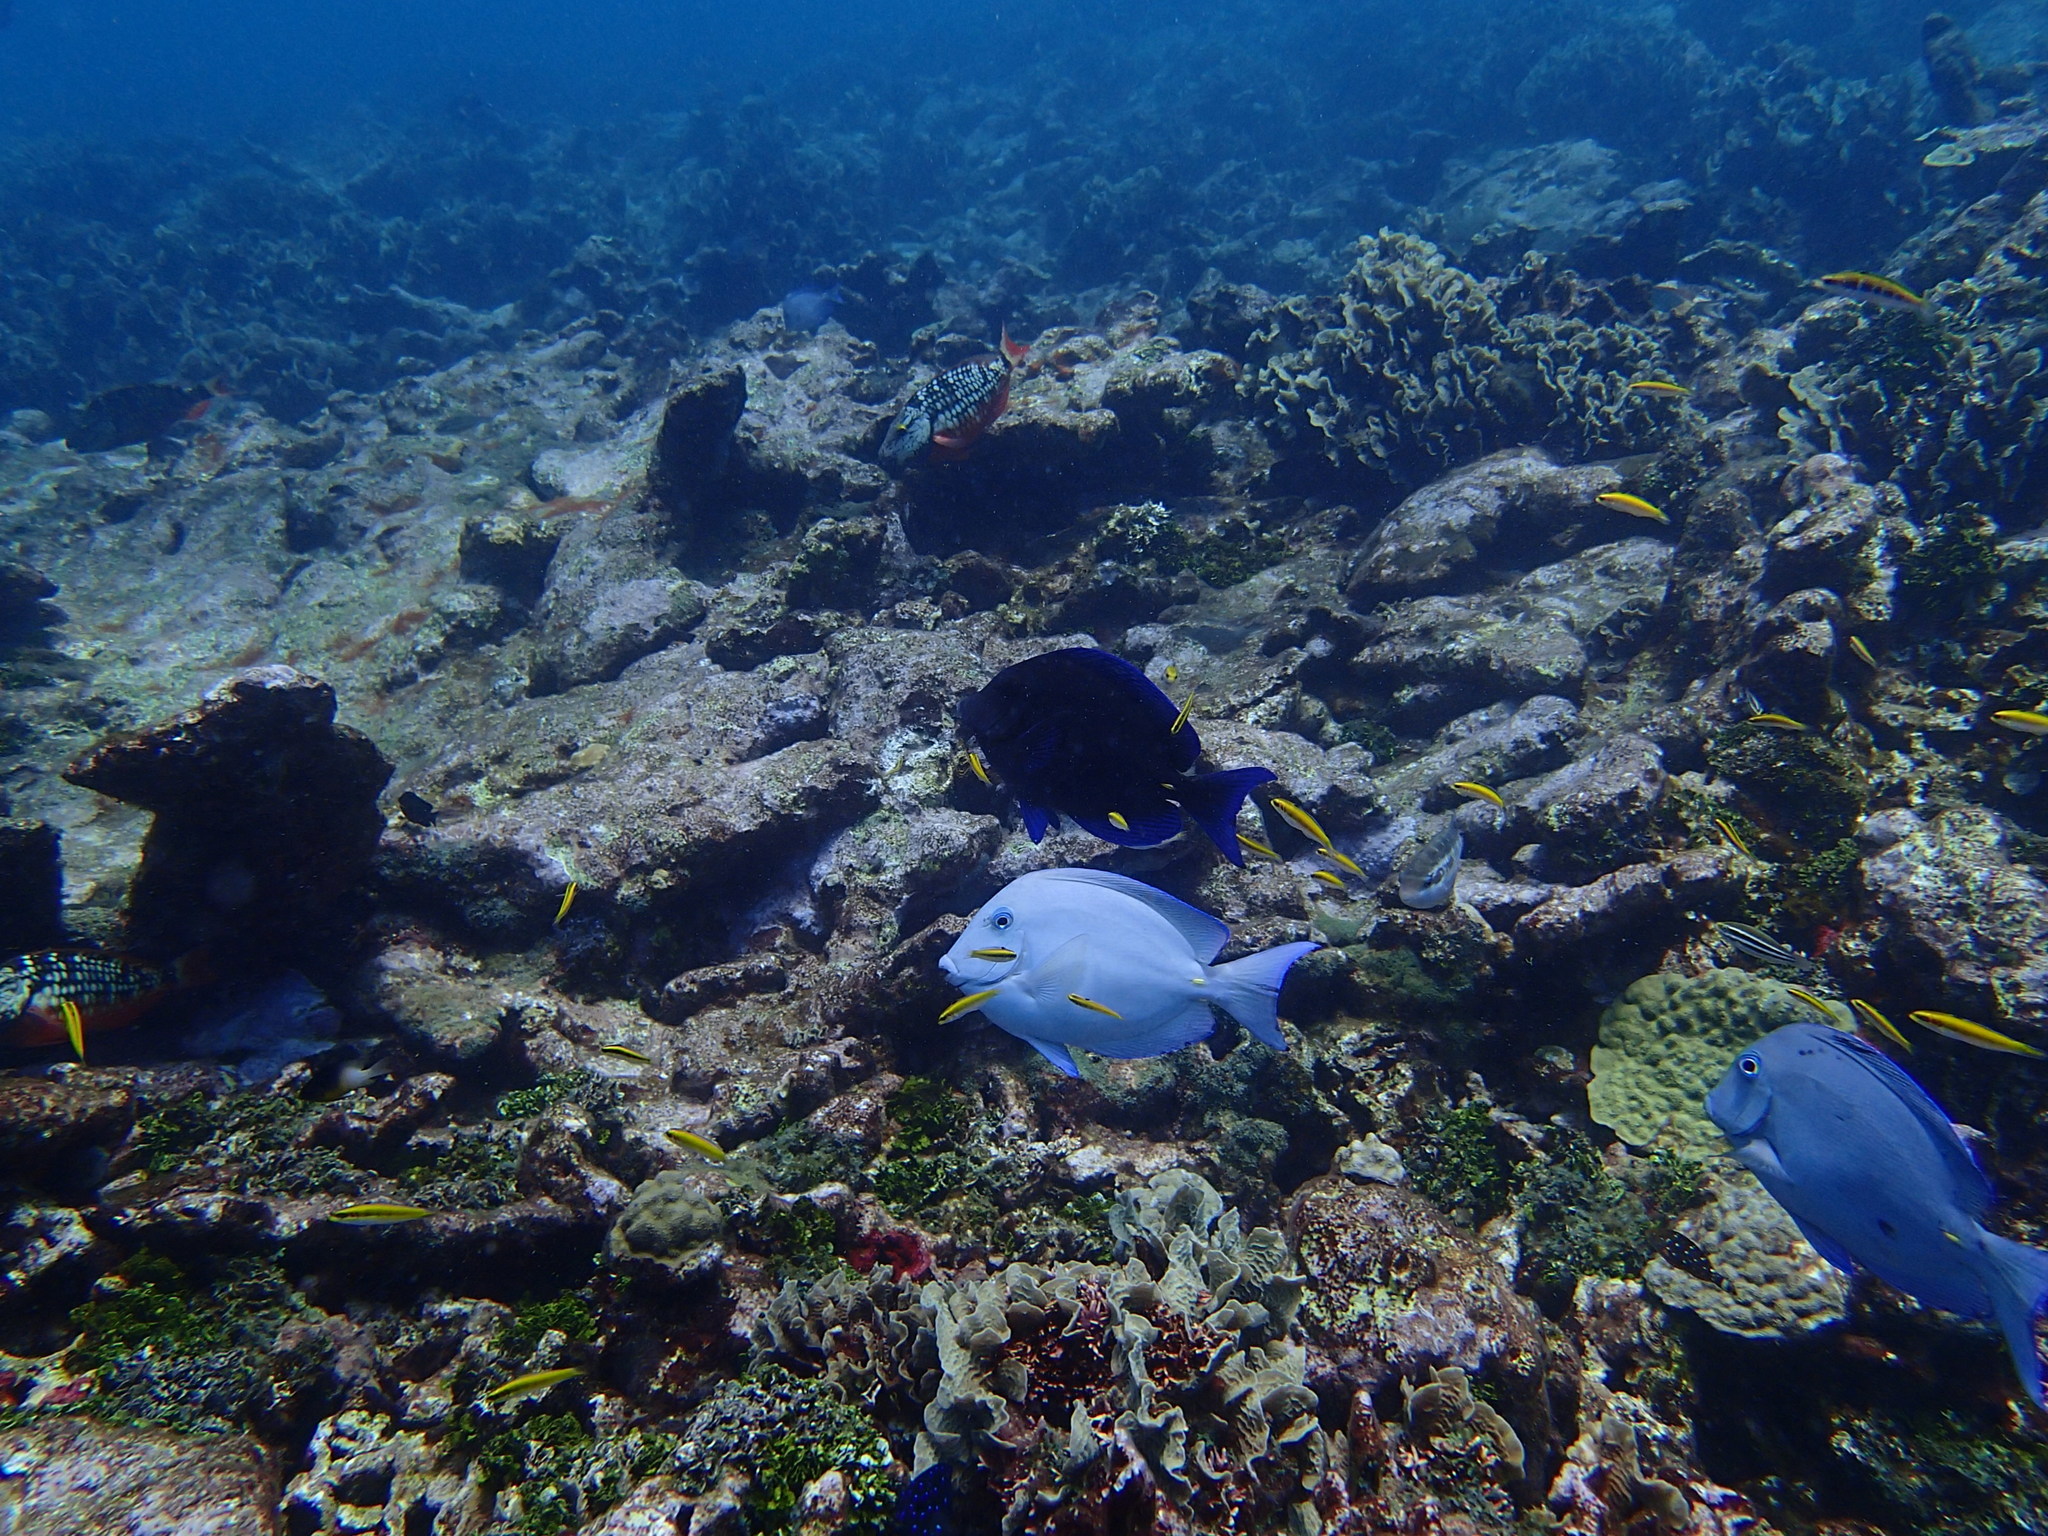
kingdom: Animalia
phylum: Chordata
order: Perciformes
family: Acanthuridae
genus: Acanthurus
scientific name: Acanthurus coeruleus
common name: Blue tang
